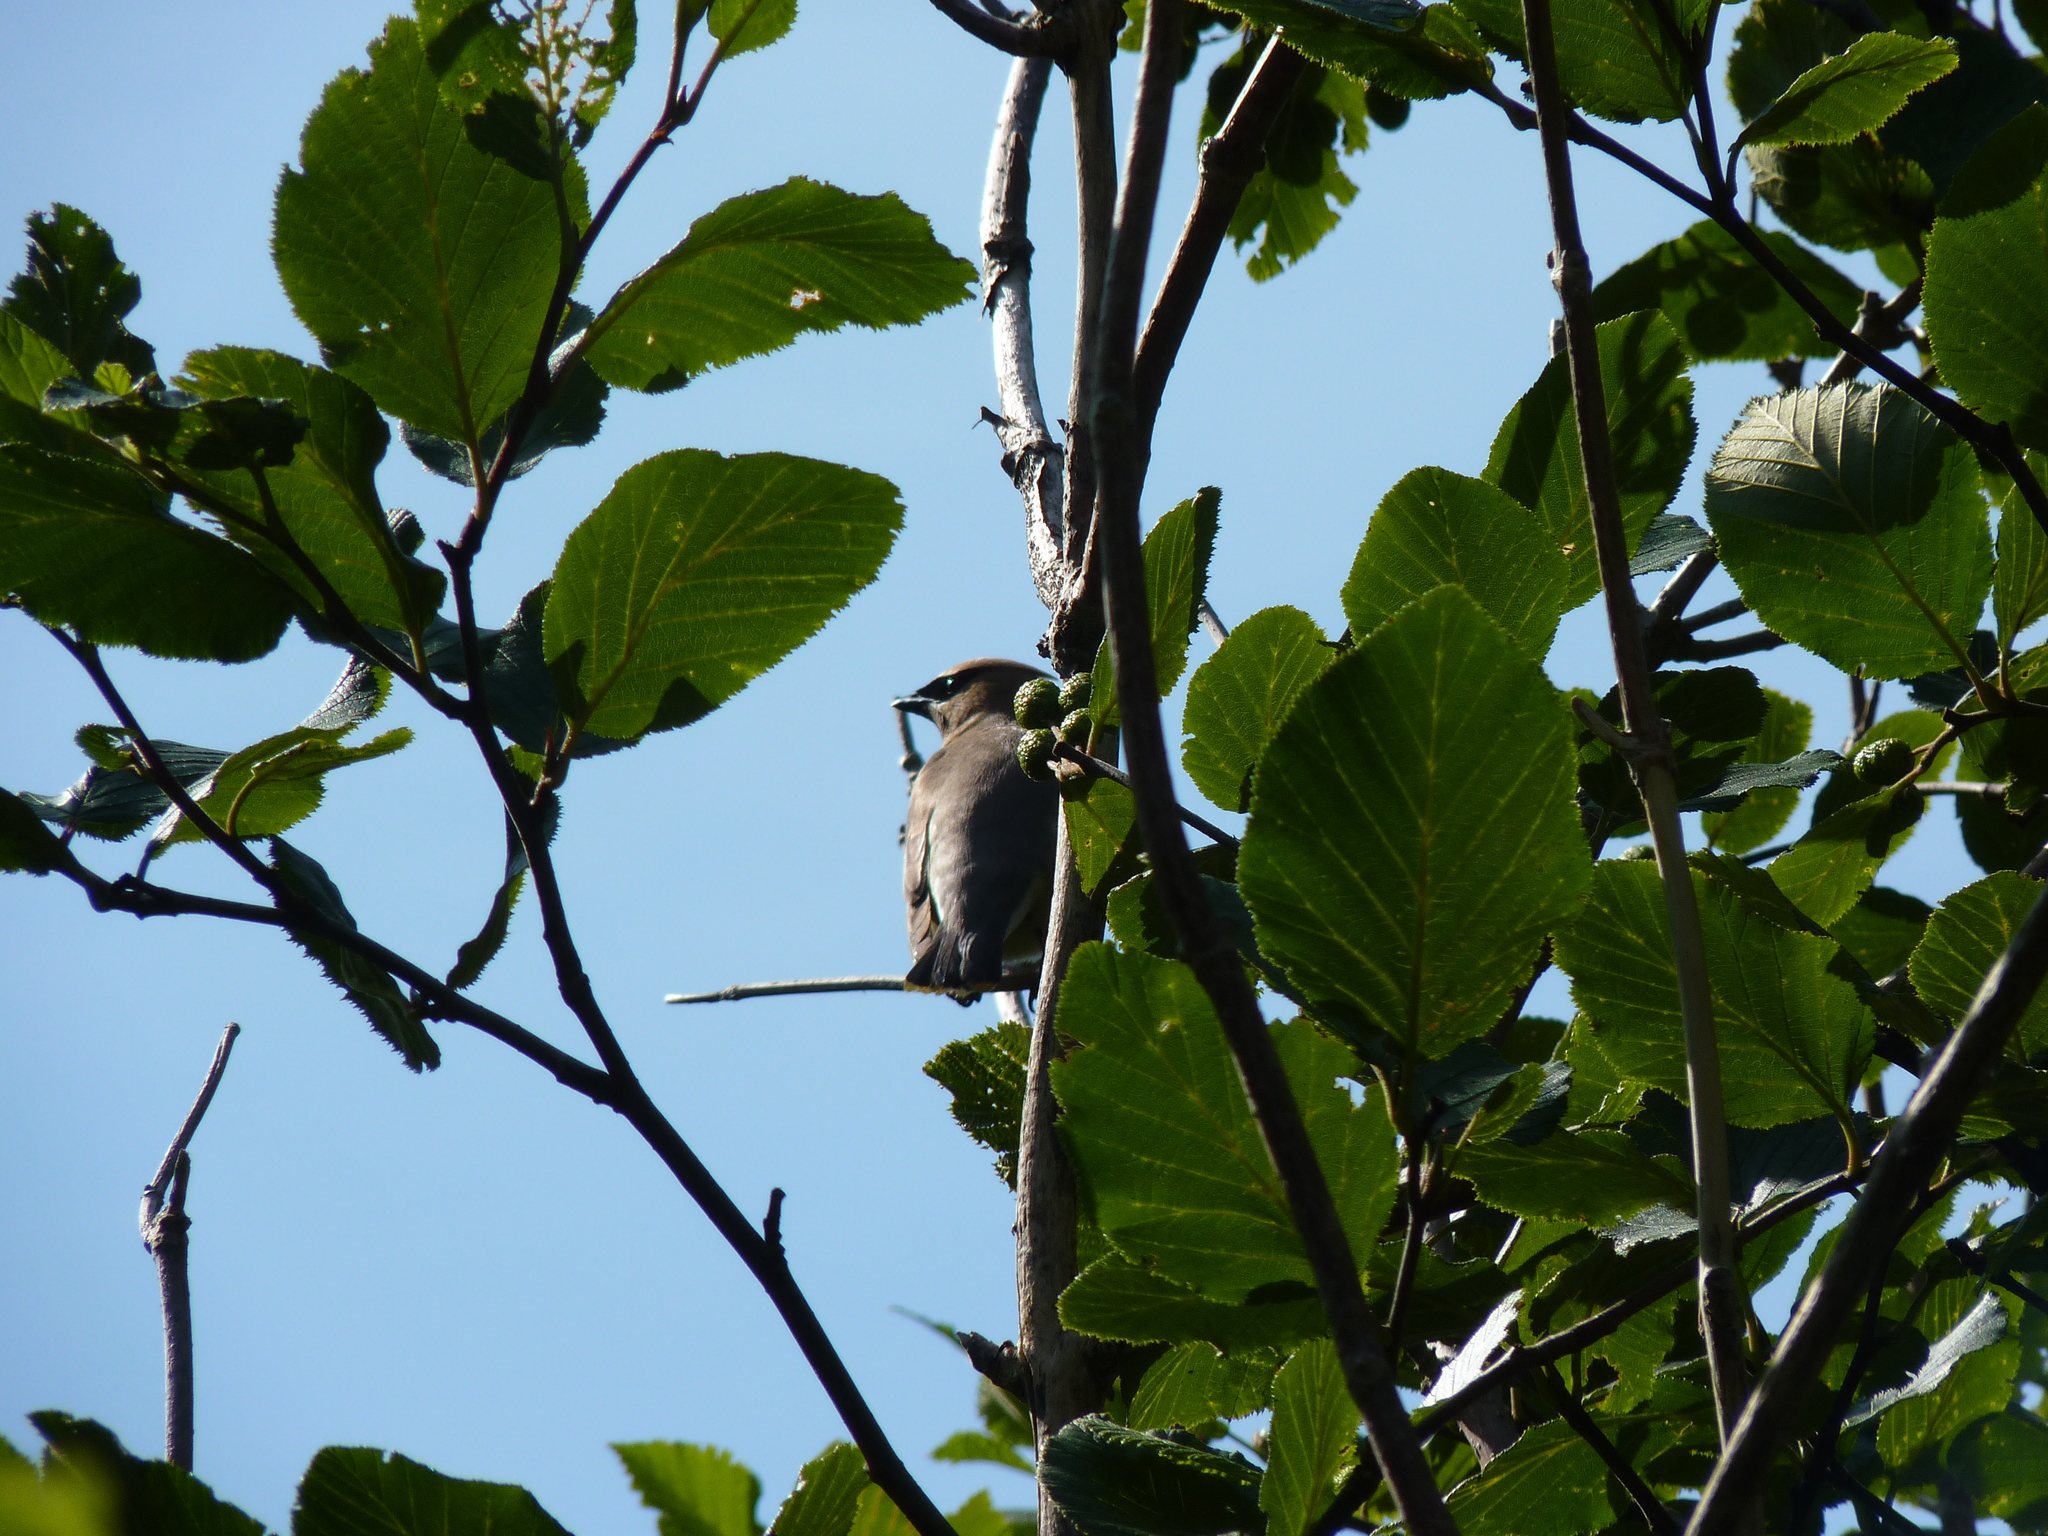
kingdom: Animalia
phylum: Chordata
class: Aves
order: Passeriformes
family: Bombycillidae
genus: Bombycilla
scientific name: Bombycilla cedrorum
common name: Cedar waxwing
